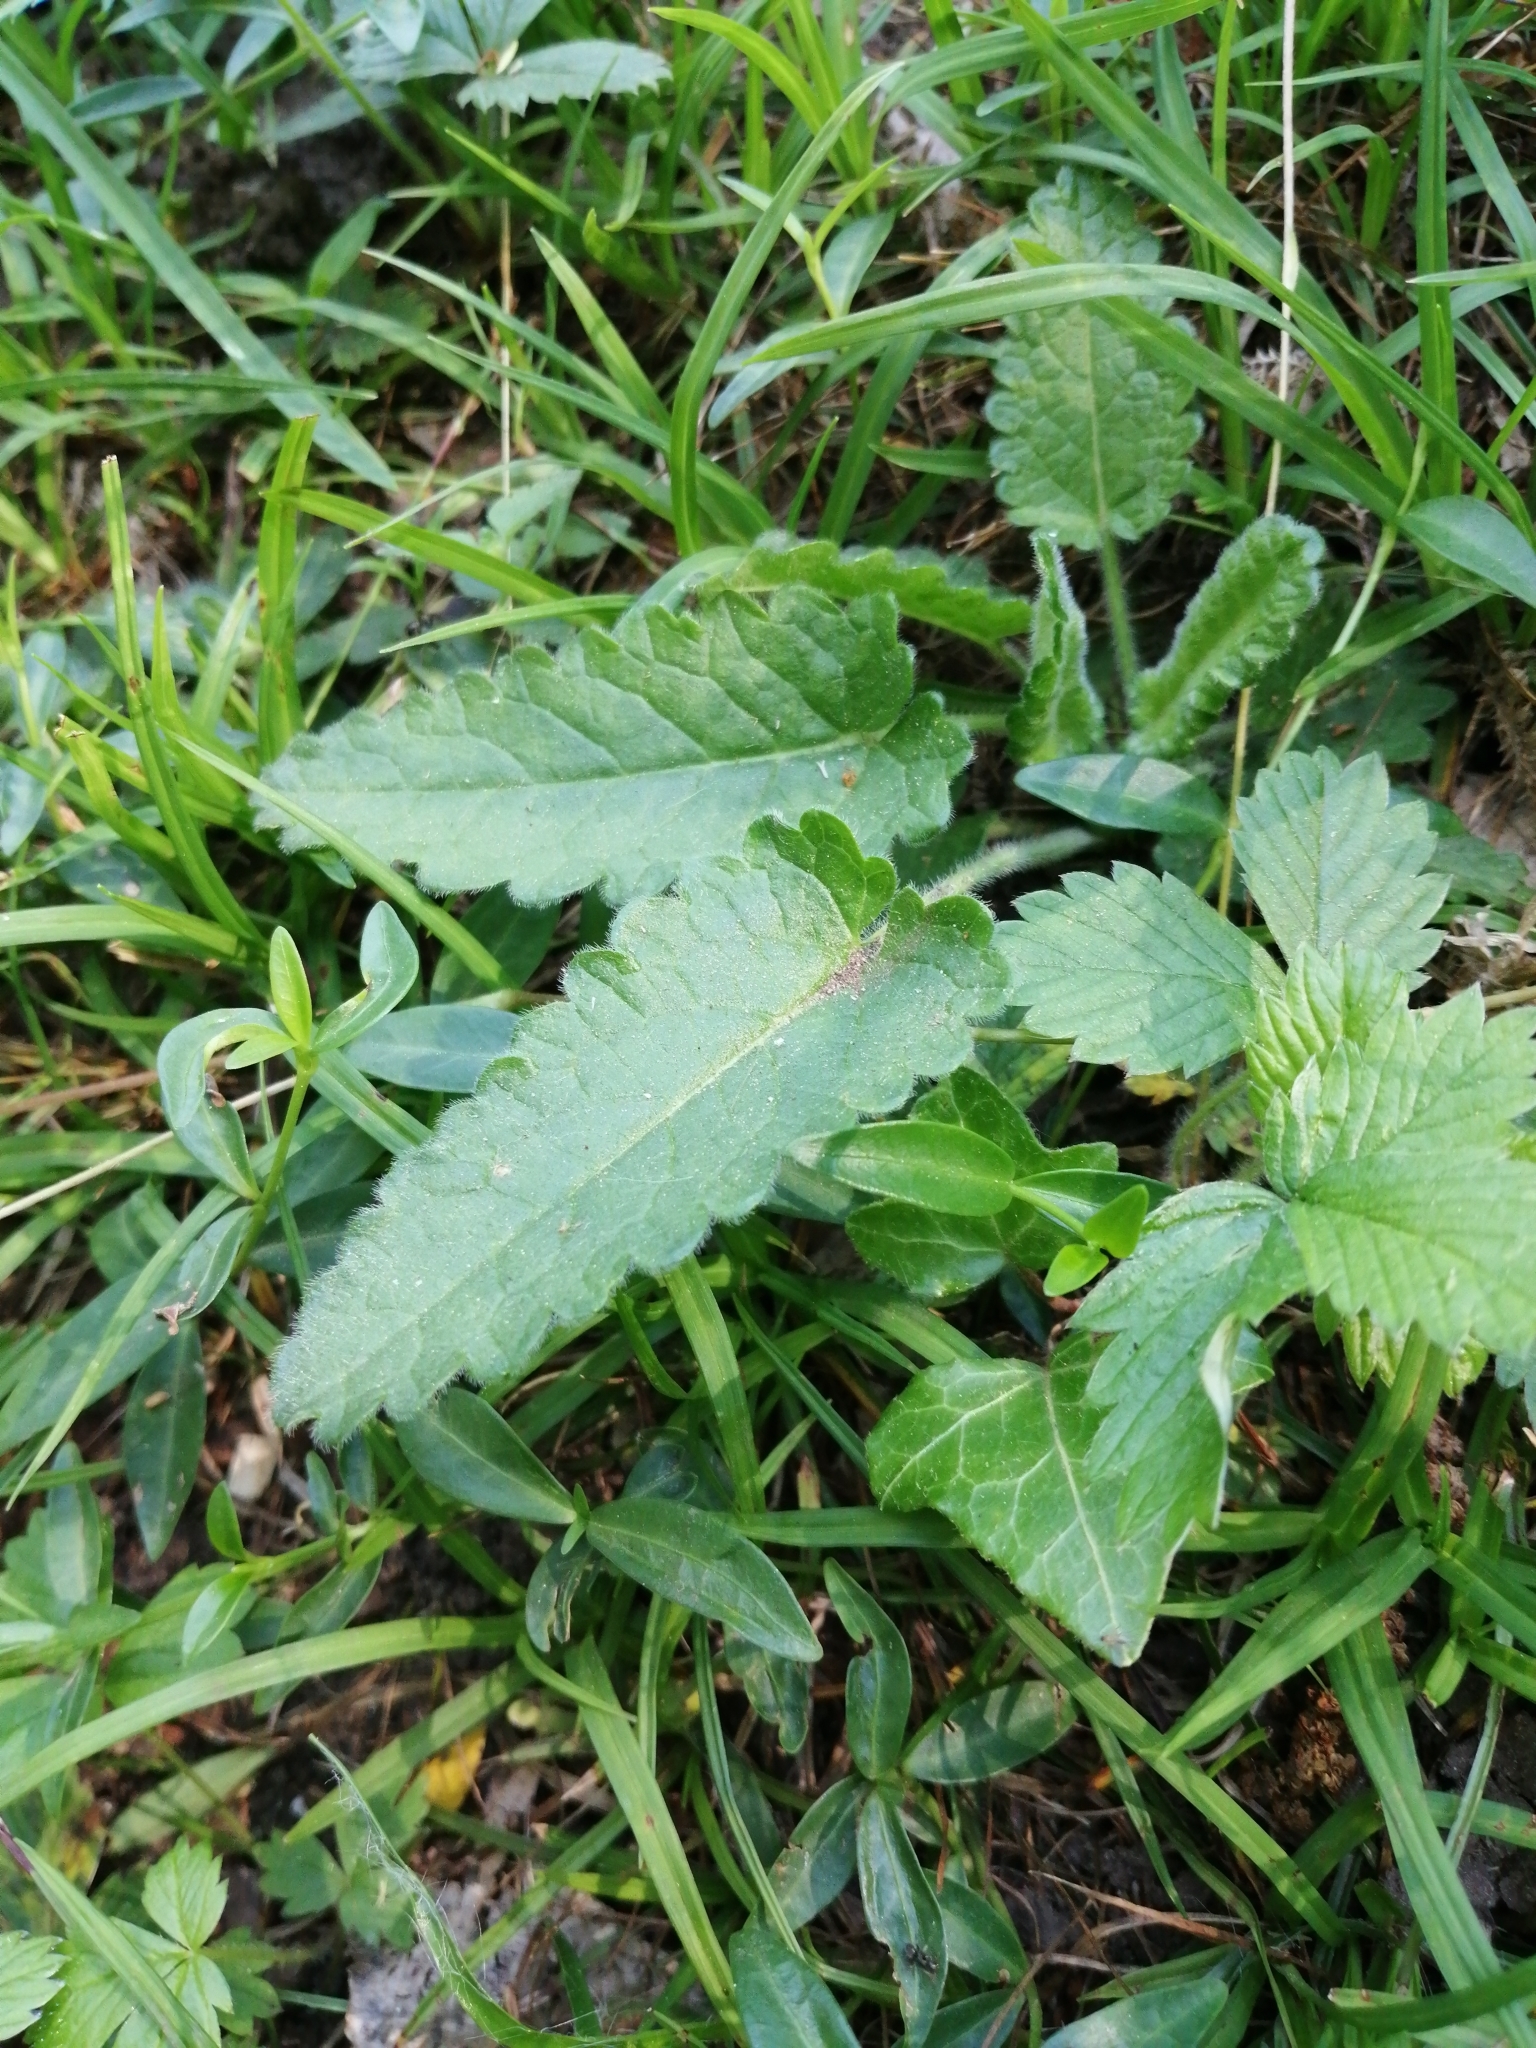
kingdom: Plantae
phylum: Tracheophyta
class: Magnoliopsida
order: Lamiales
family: Lamiaceae
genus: Betonica
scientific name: Betonica officinalis
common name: Bishop's-wort
